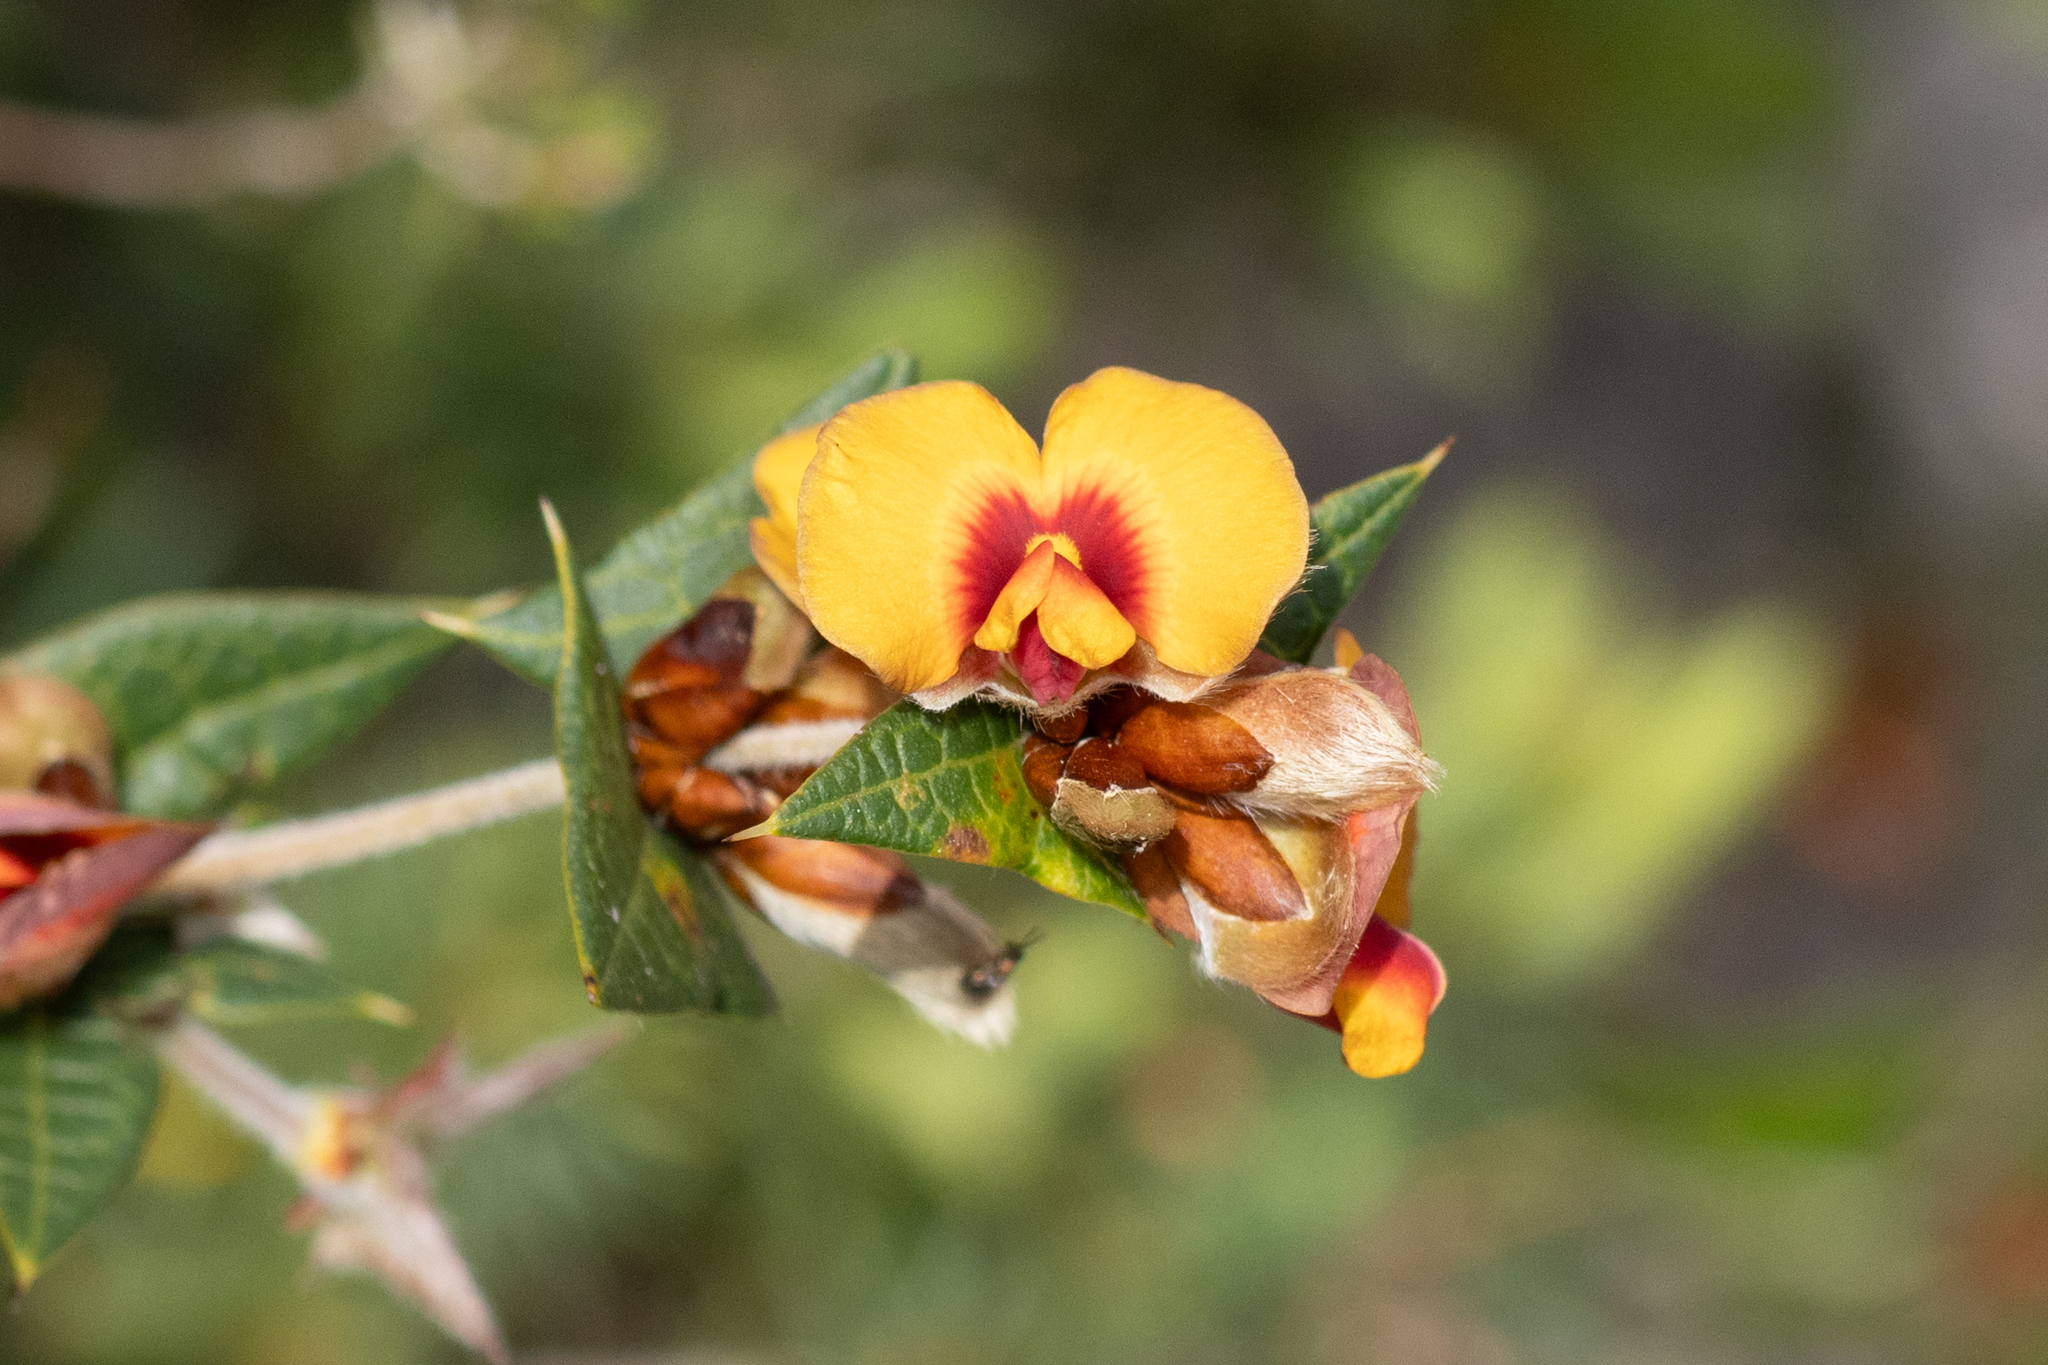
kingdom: Plantae
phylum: Tracheophyta
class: Magnoliopsida
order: Fabales
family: Fabaceae
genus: Platylobium
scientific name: Platylobium obtusangulum
